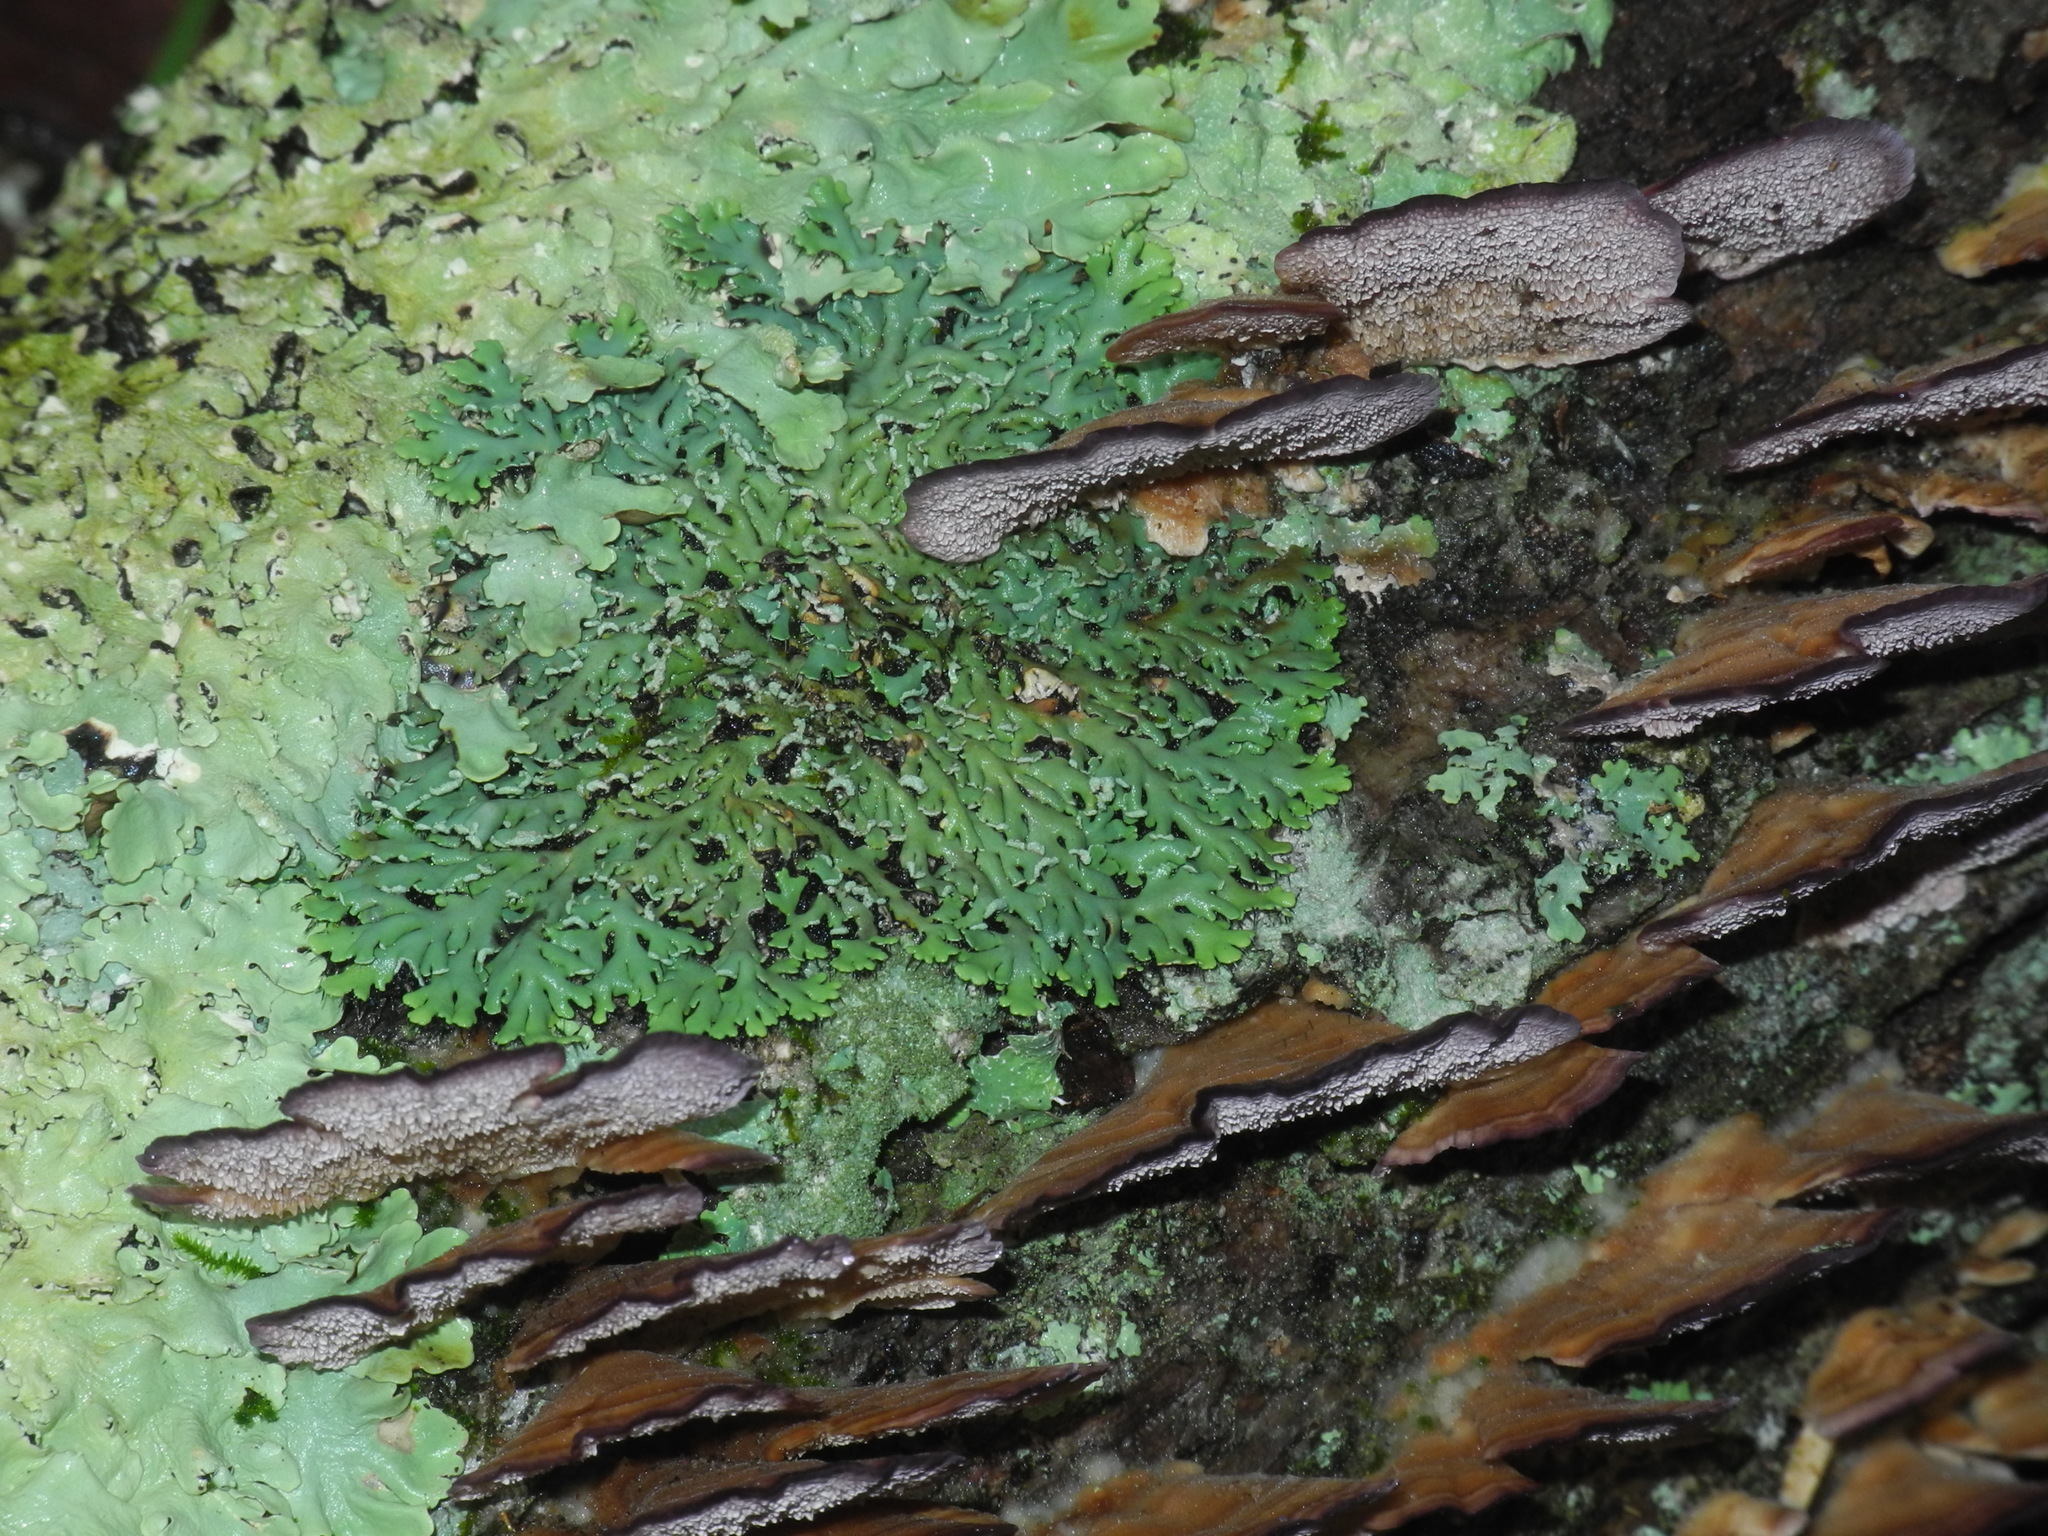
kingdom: Fungi
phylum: Ascomycota
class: Lecanoromycetes
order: Caliciales
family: Physciaceae
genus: Polyblastidium
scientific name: Polyblastidium japonicum
